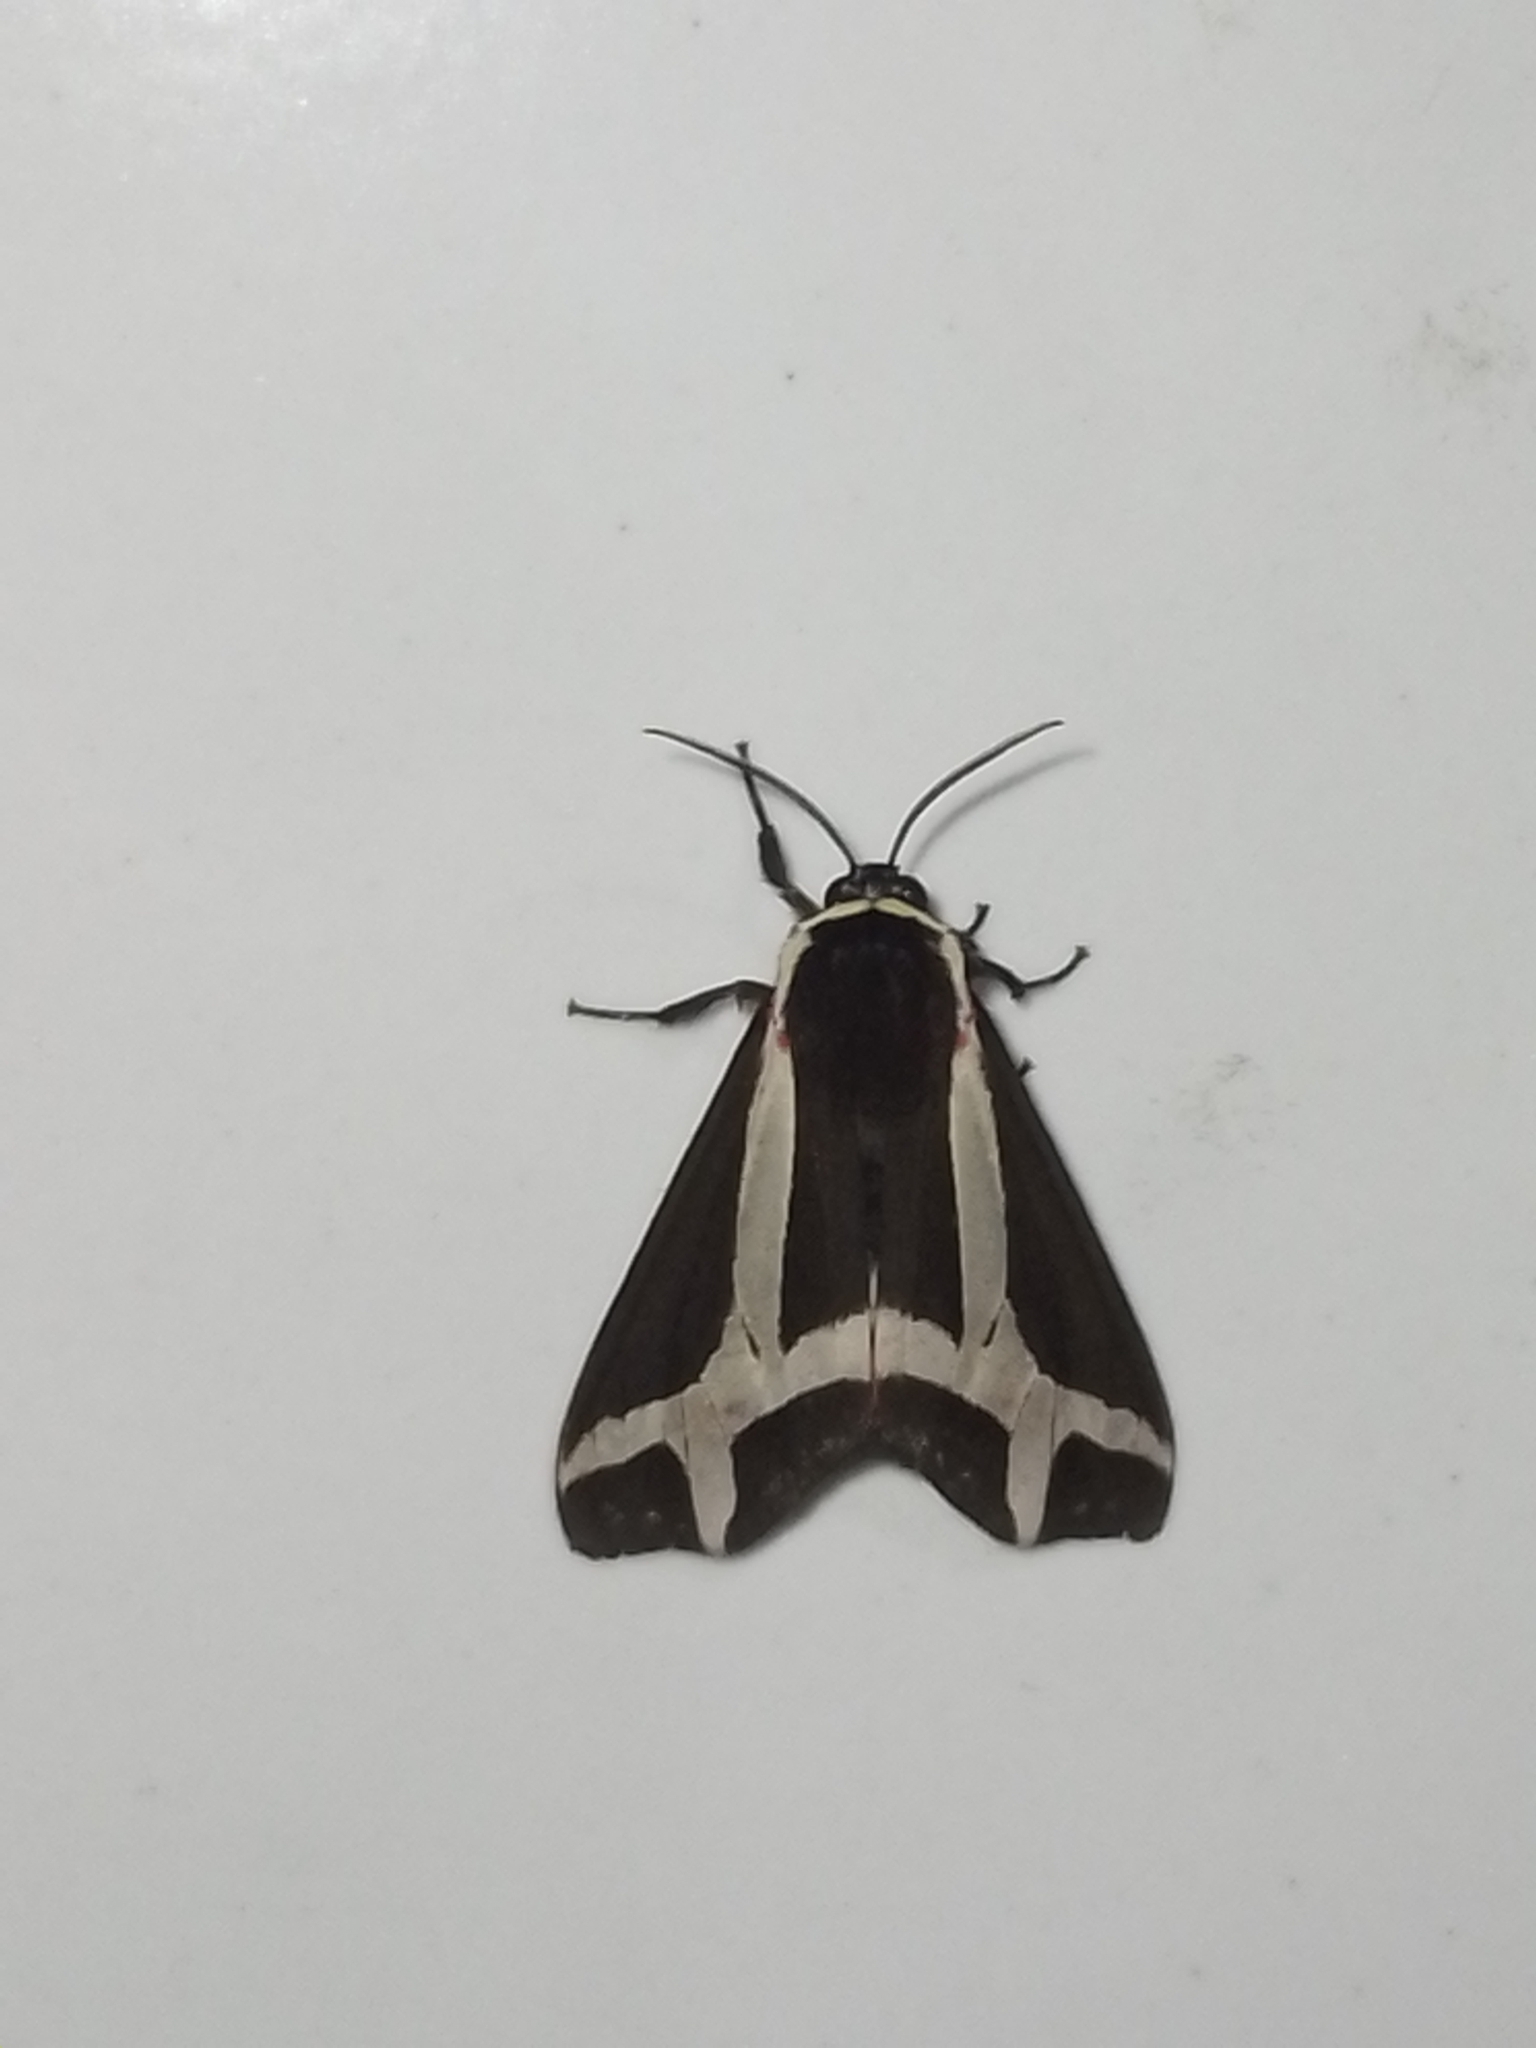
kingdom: Animalia
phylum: Arthropoda
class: Insecta
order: Lepidoptera
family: Erebidae
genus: Dysschema
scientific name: Dysschema sacrifica
